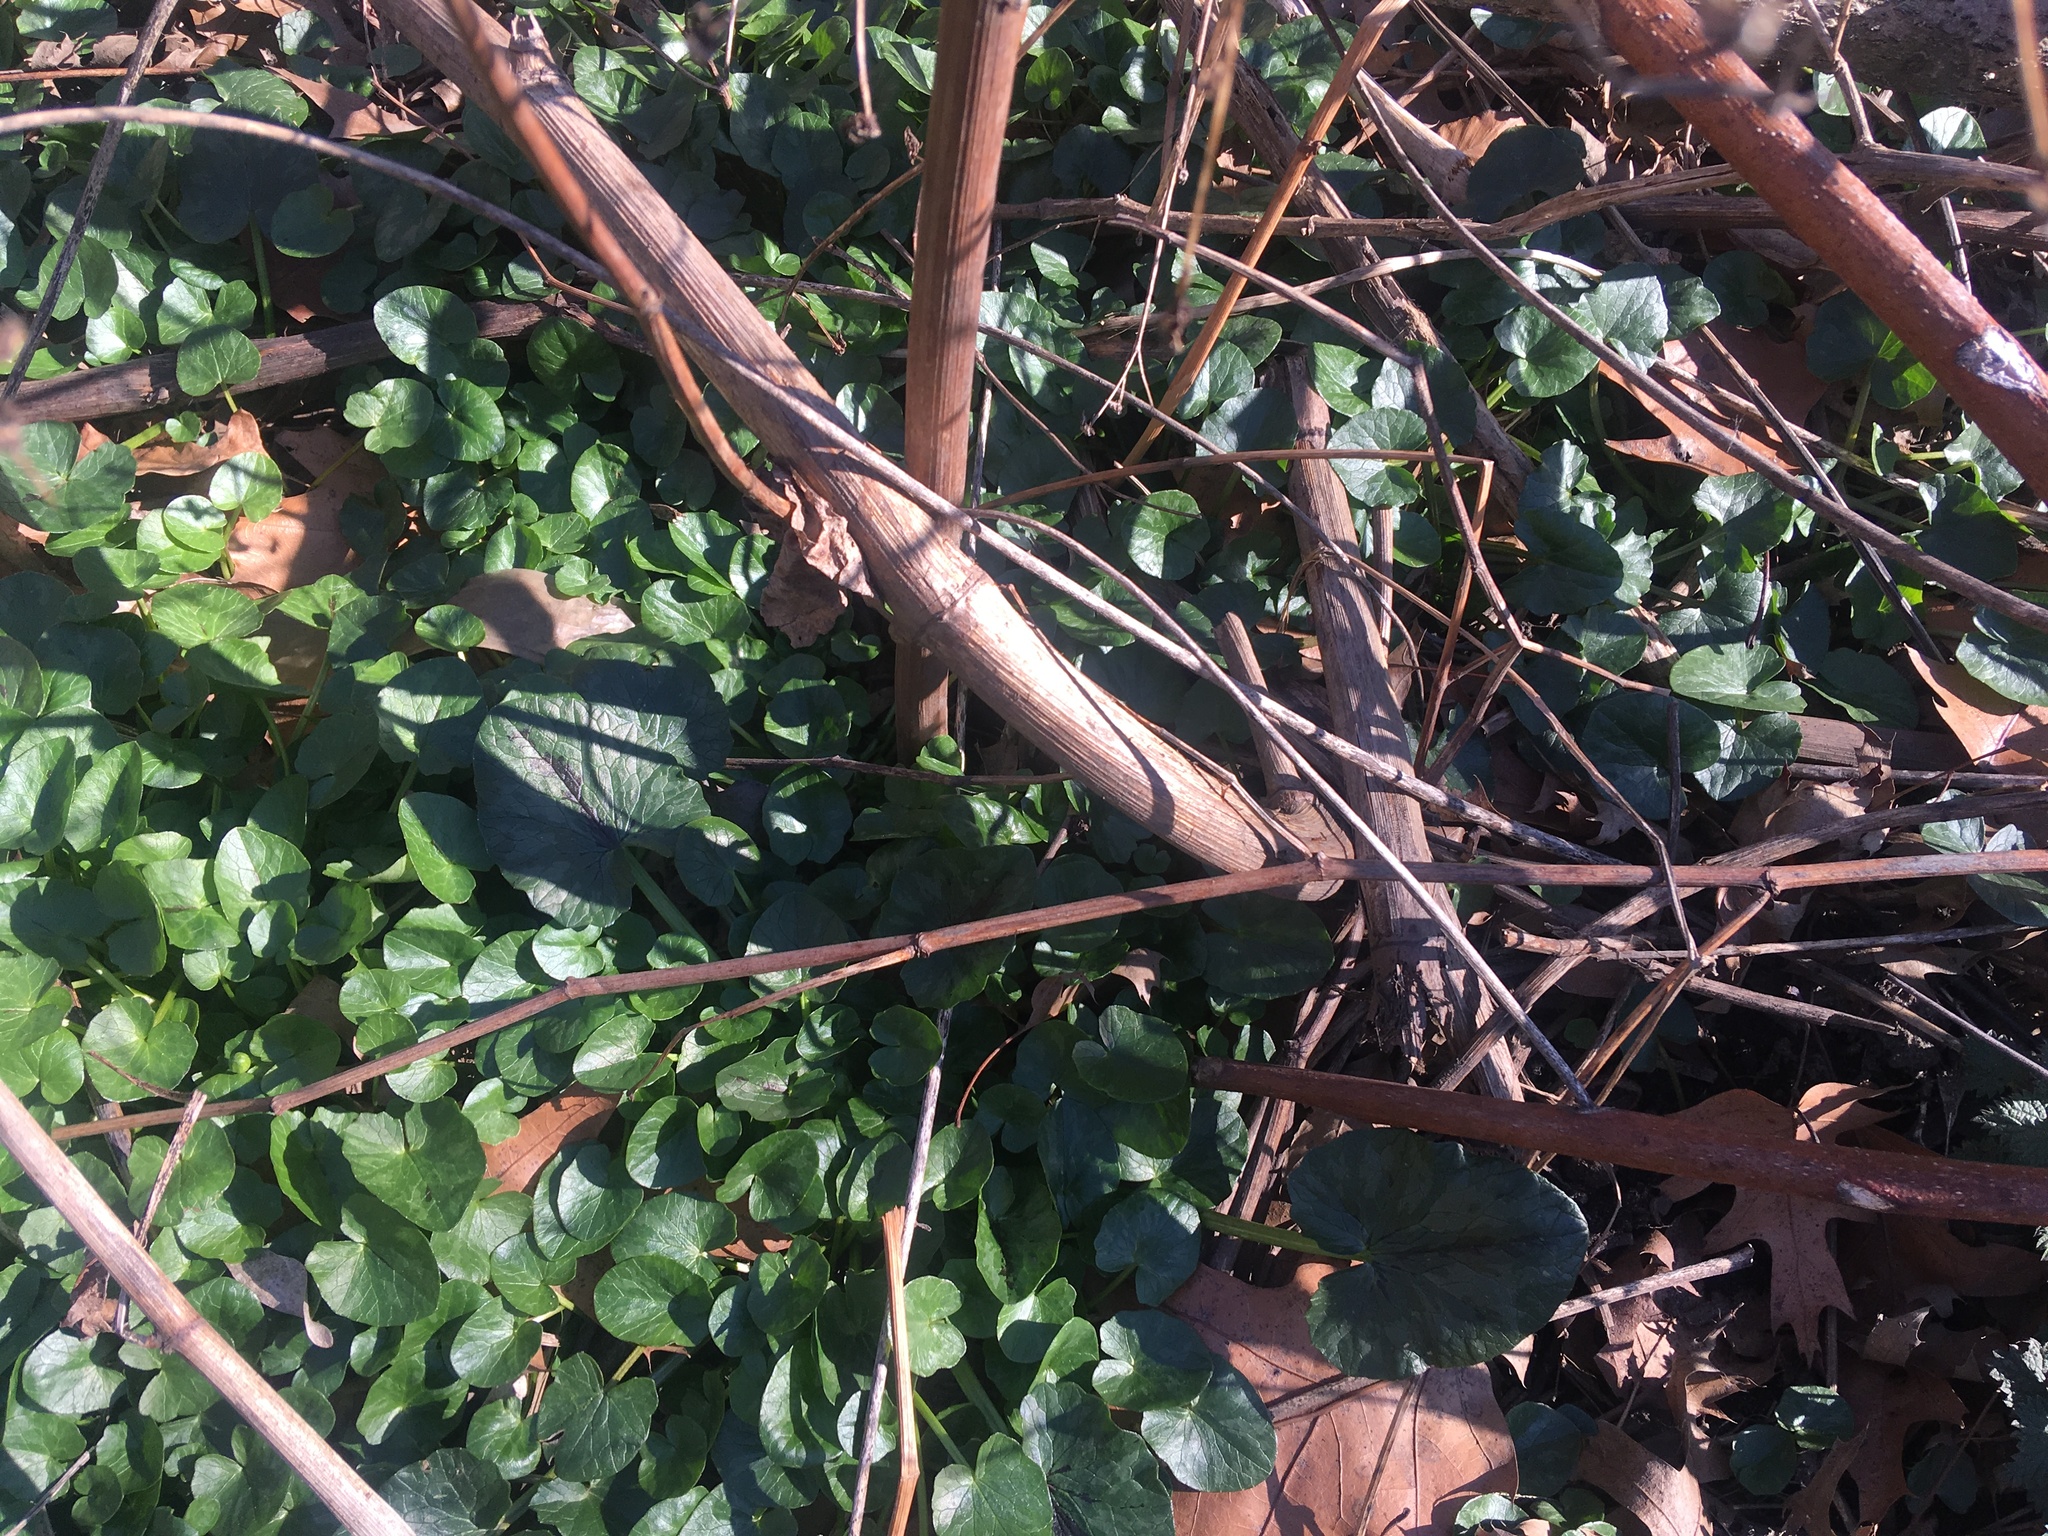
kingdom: Plantae
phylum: Tracheophyta
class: Magnoliopsida
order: Ranunculales
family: Ranunculaceae
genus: Ficaria
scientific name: Ficaria verna
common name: Lesser celandine
